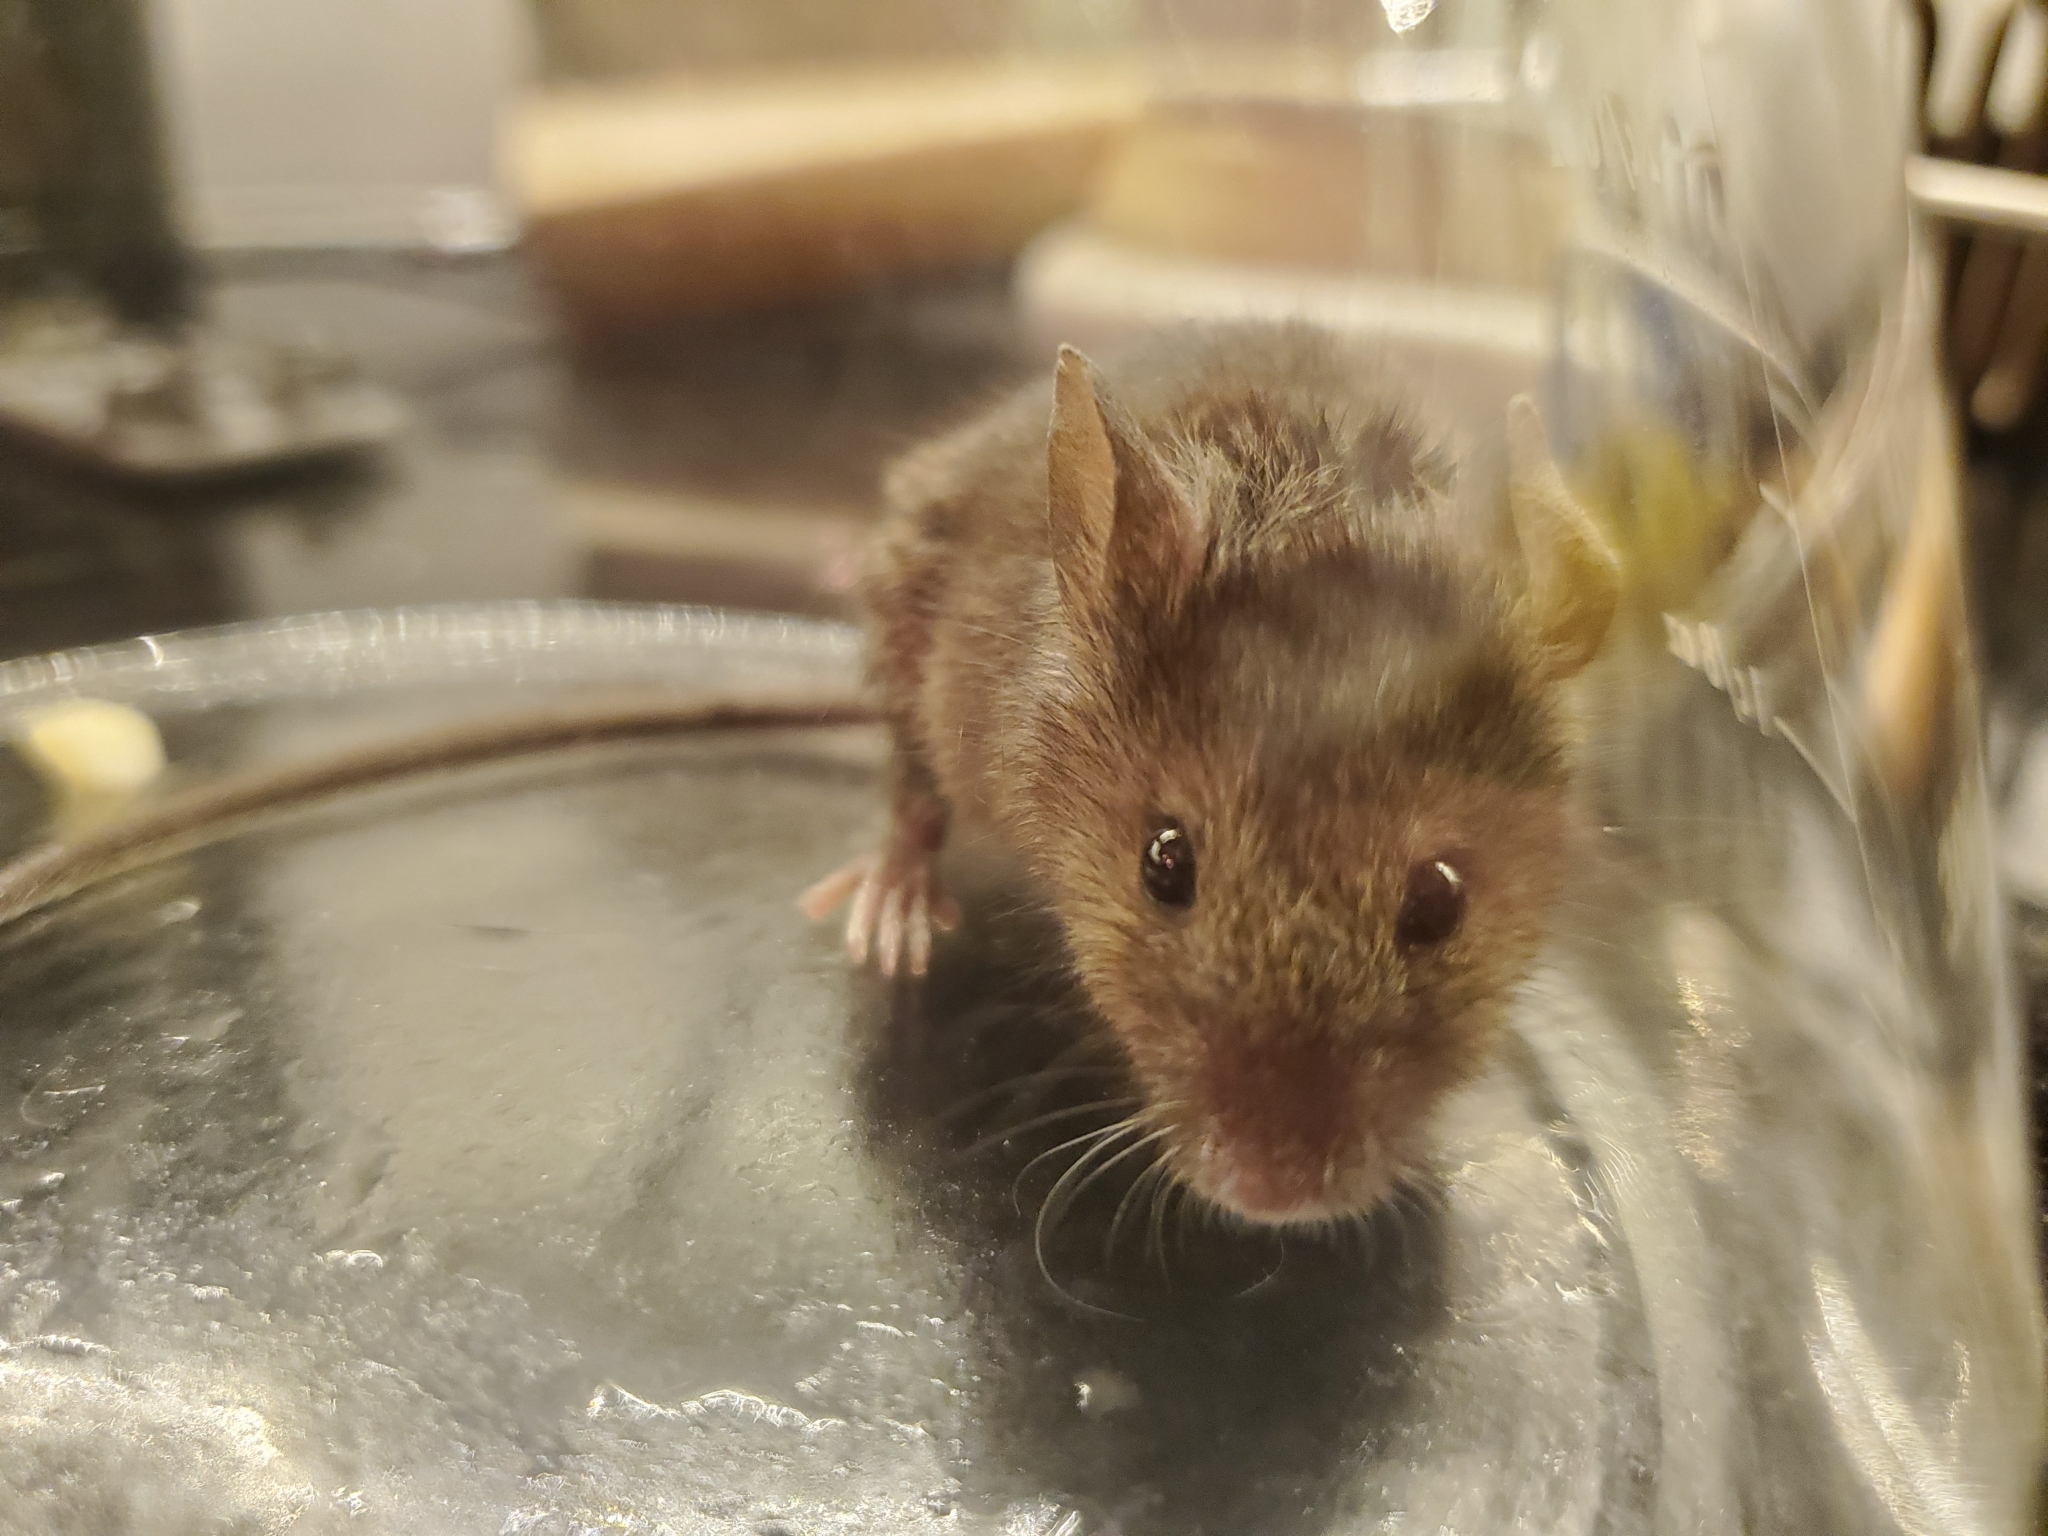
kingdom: Animalia
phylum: Chordata
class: Mammalia
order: Rodentia
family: Muridae
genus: Mus
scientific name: Mus musculus
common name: House mouse
